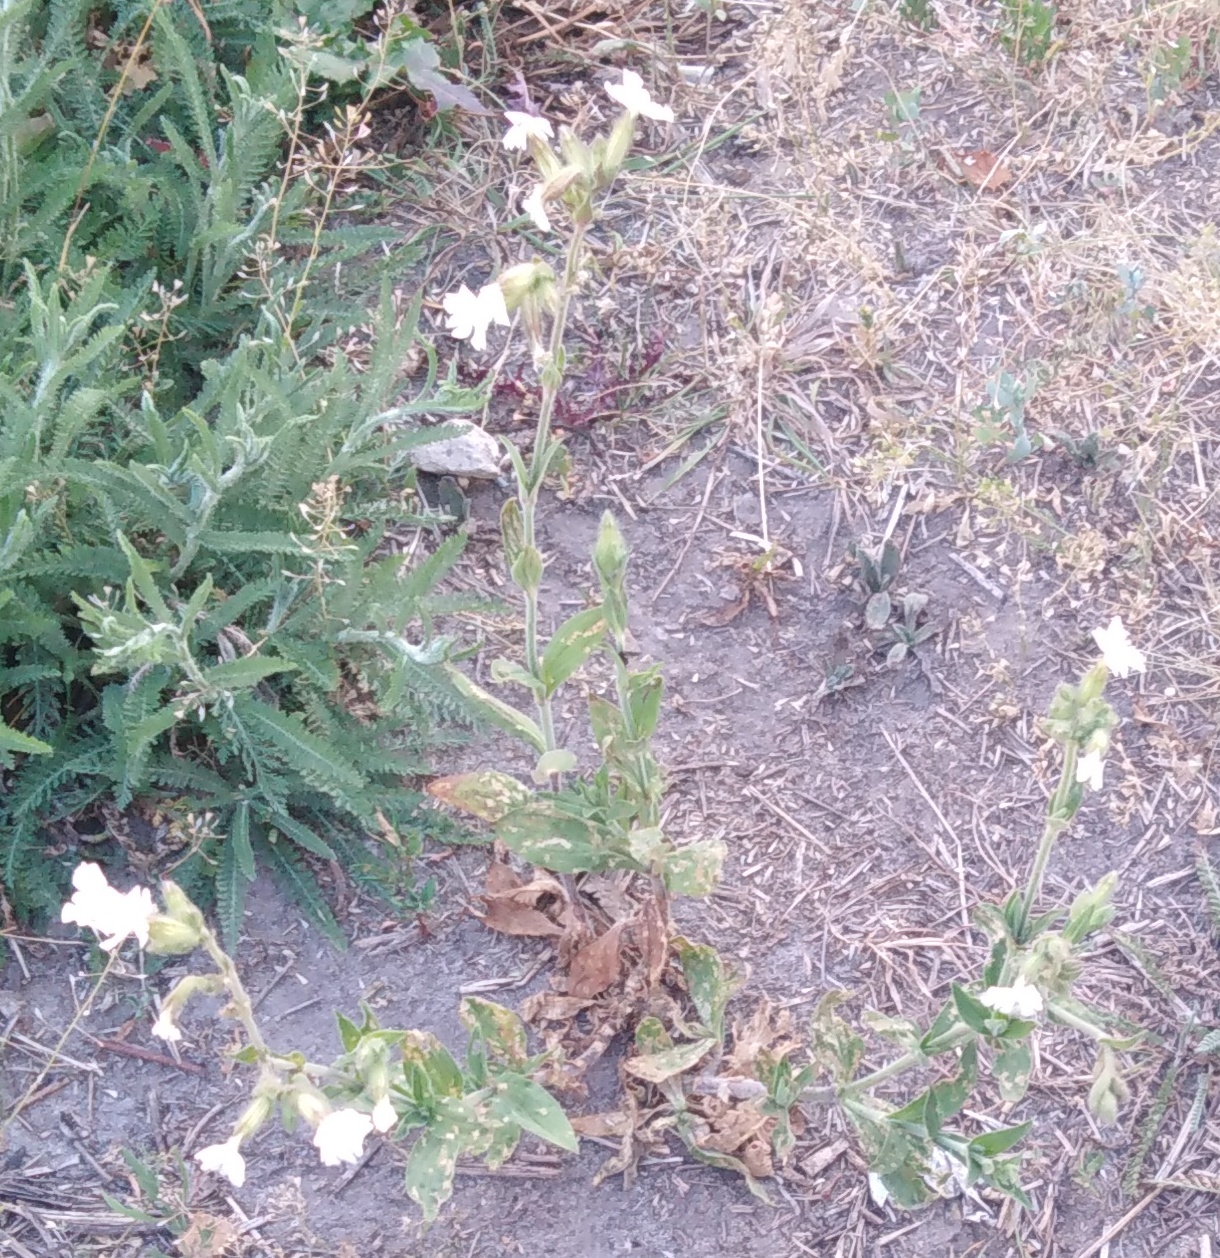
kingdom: Plantae
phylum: Tracheophyta
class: Magnoliopsida
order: Caryophyllales
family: Caryophyllaceae
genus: Silene
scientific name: Silene latifolia
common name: White campion
